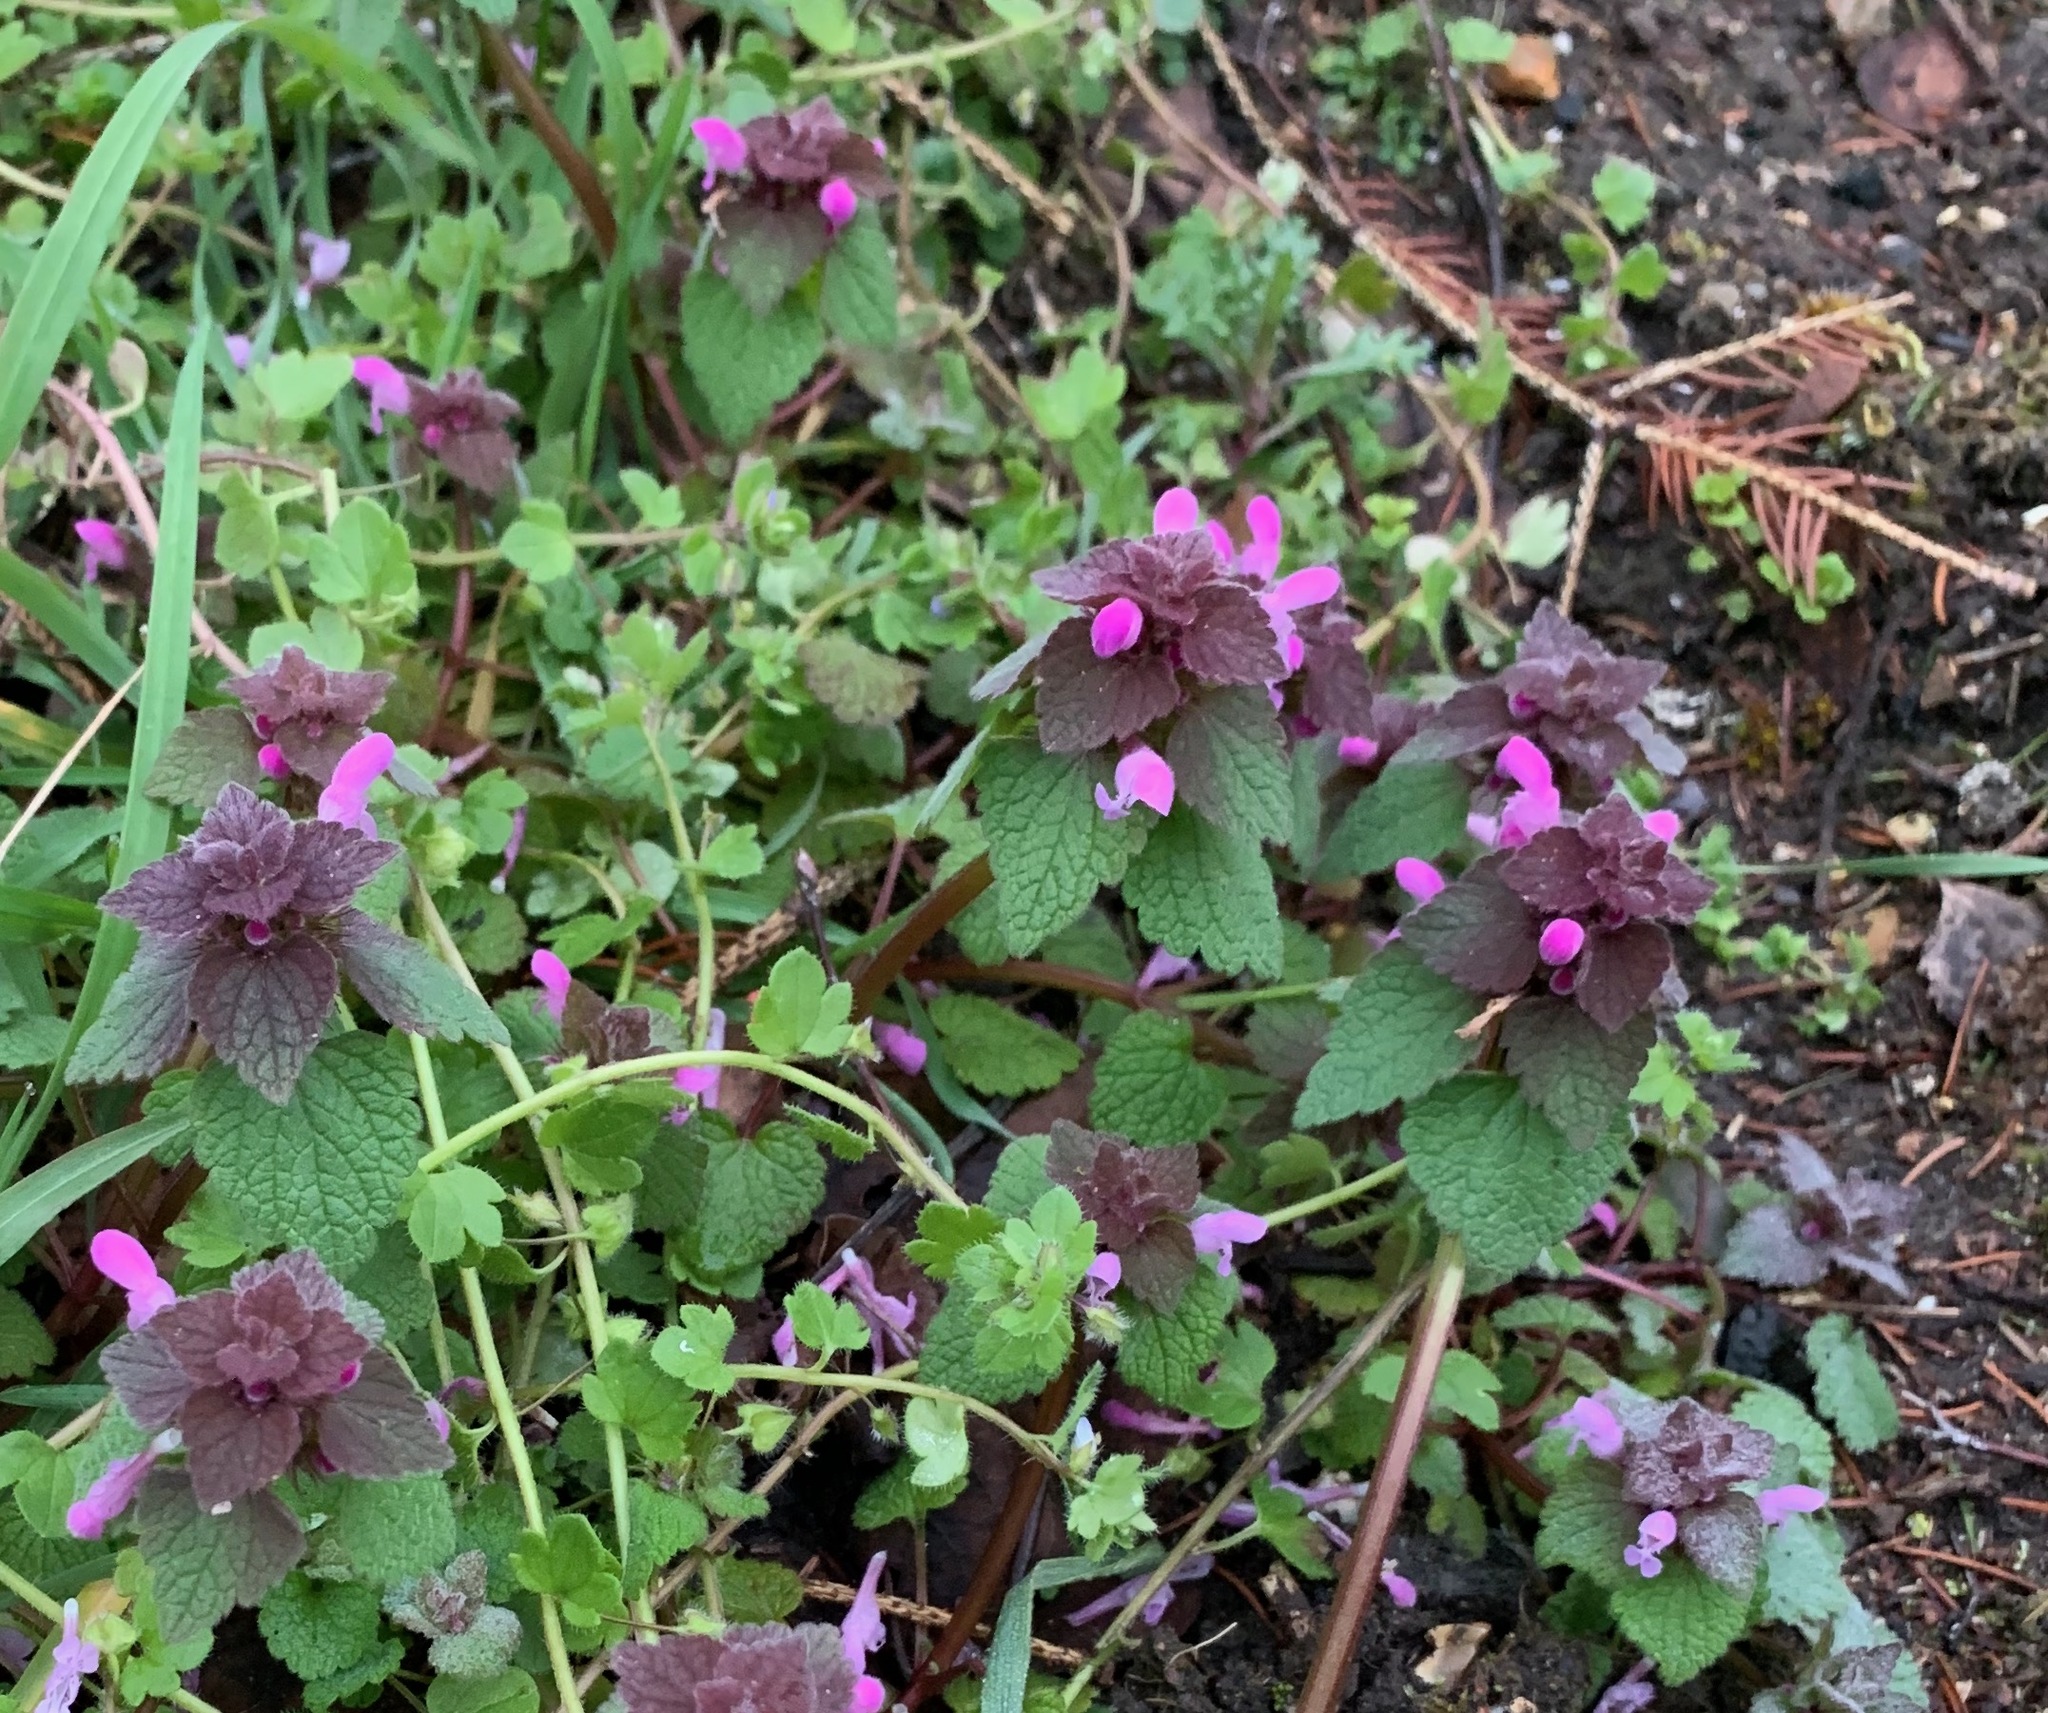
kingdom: Plantae
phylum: Tracheophyta
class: Magnoliopsida
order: Lamiales
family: Lamiaceae
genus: Lamium
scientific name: Lamium purpureum
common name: Red dead-nettle
